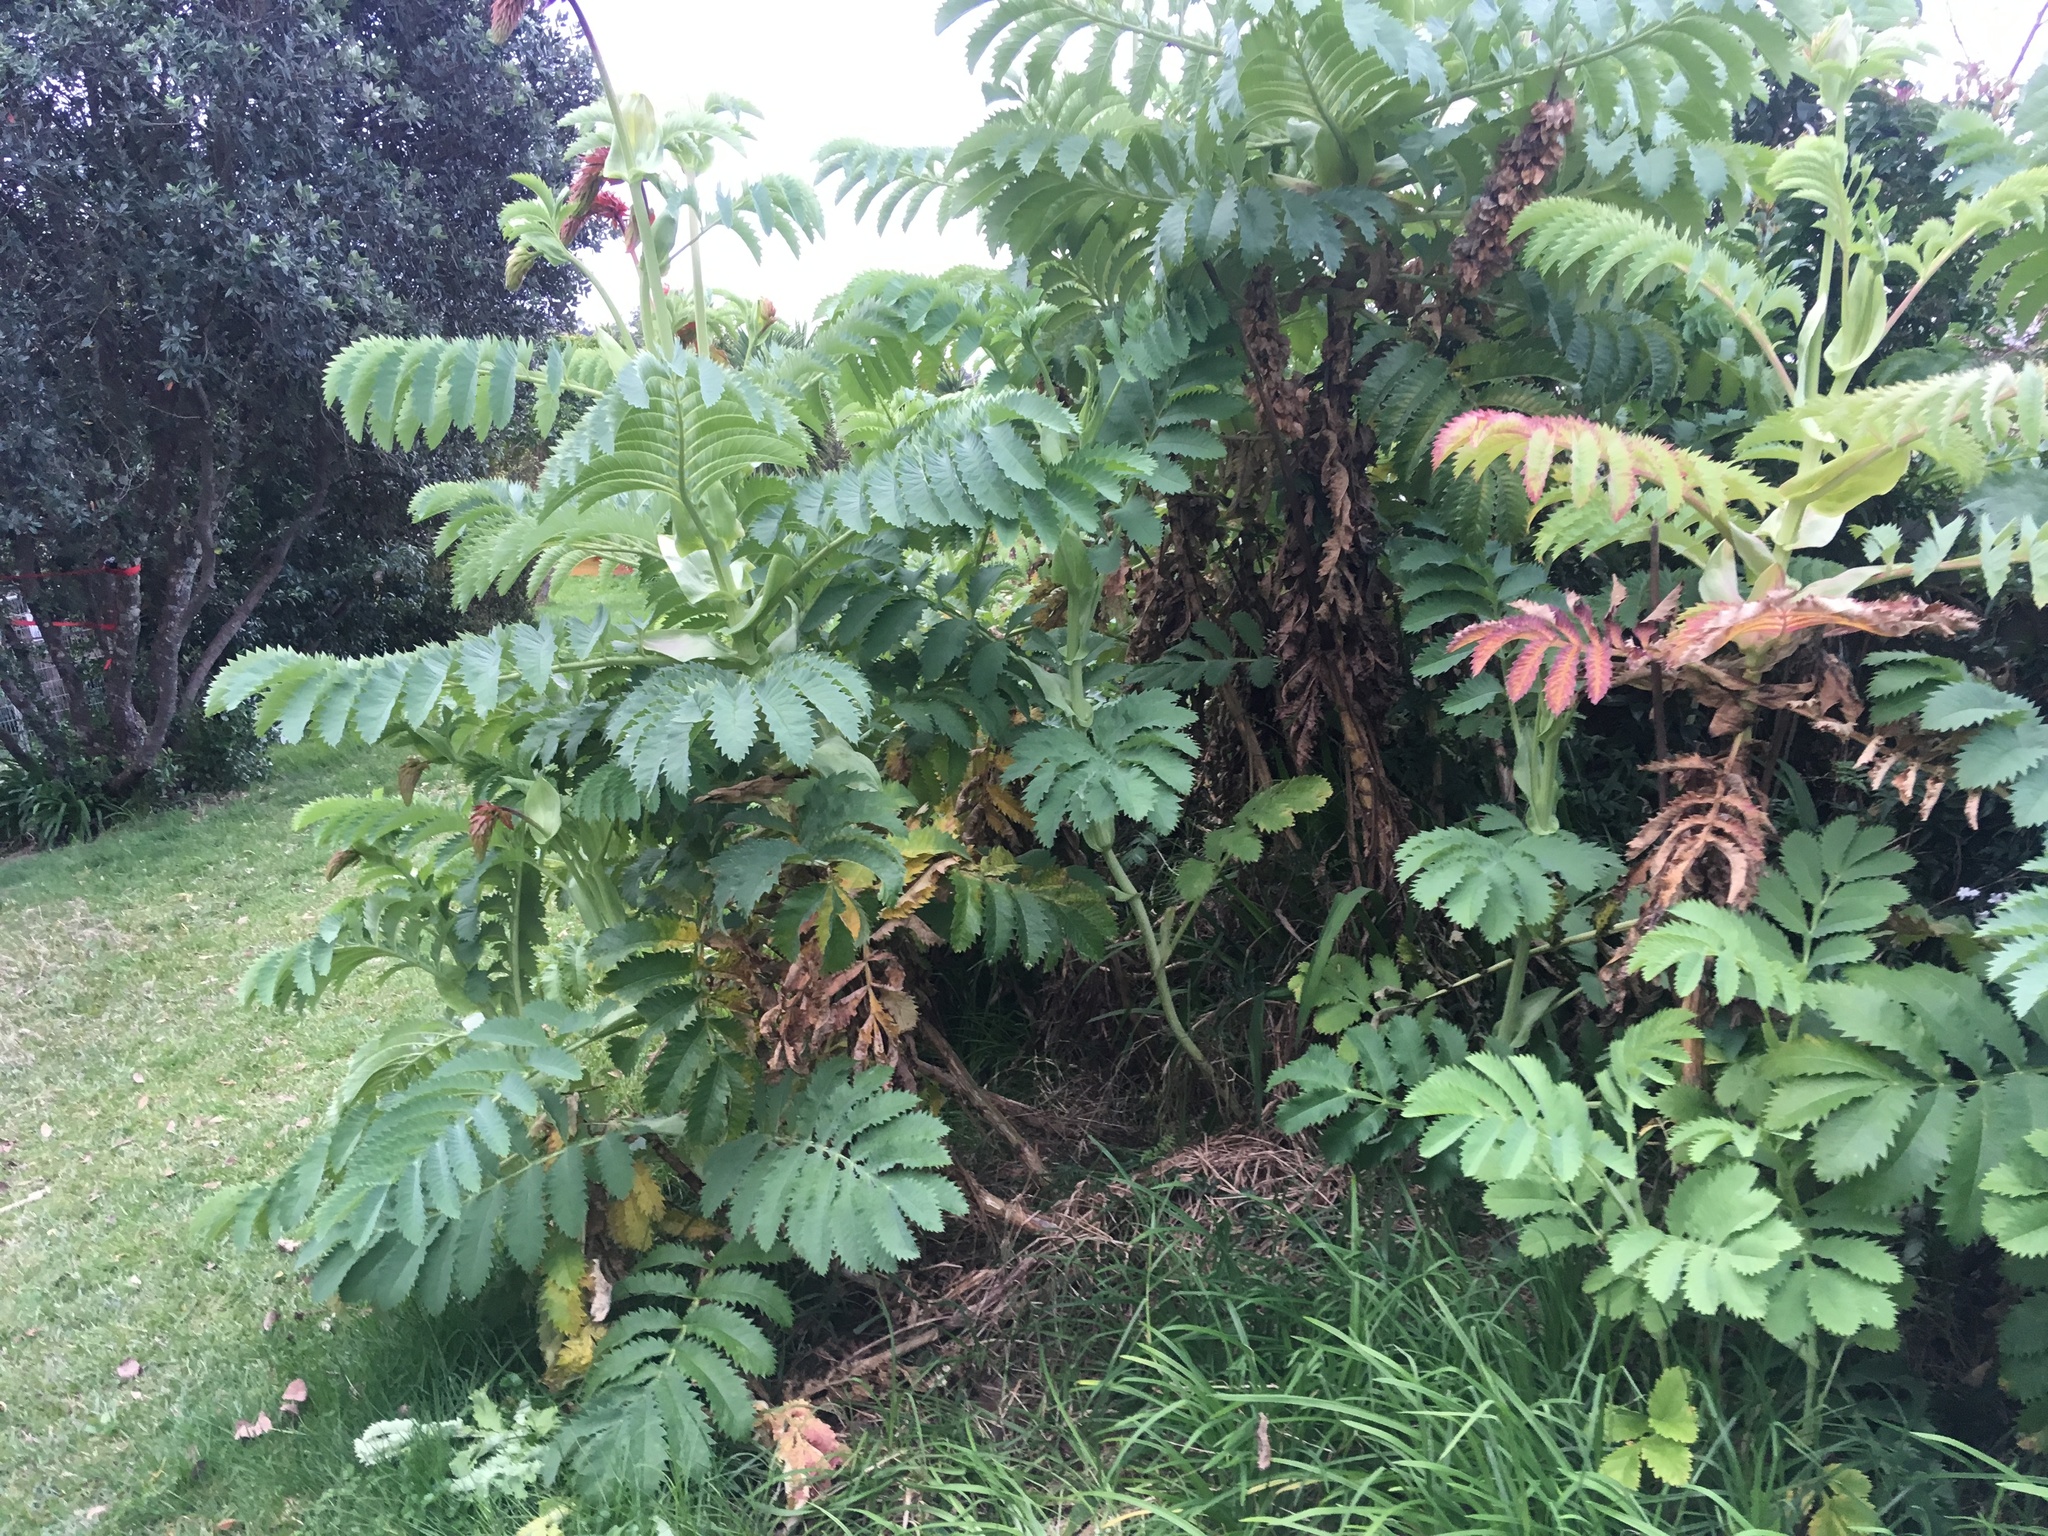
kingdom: Plantae
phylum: Tracheophyta
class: Magnoliopsida
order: Geraniales
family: Melianthaceae
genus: Melianthus
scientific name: Melianthus major
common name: Honey-flower
